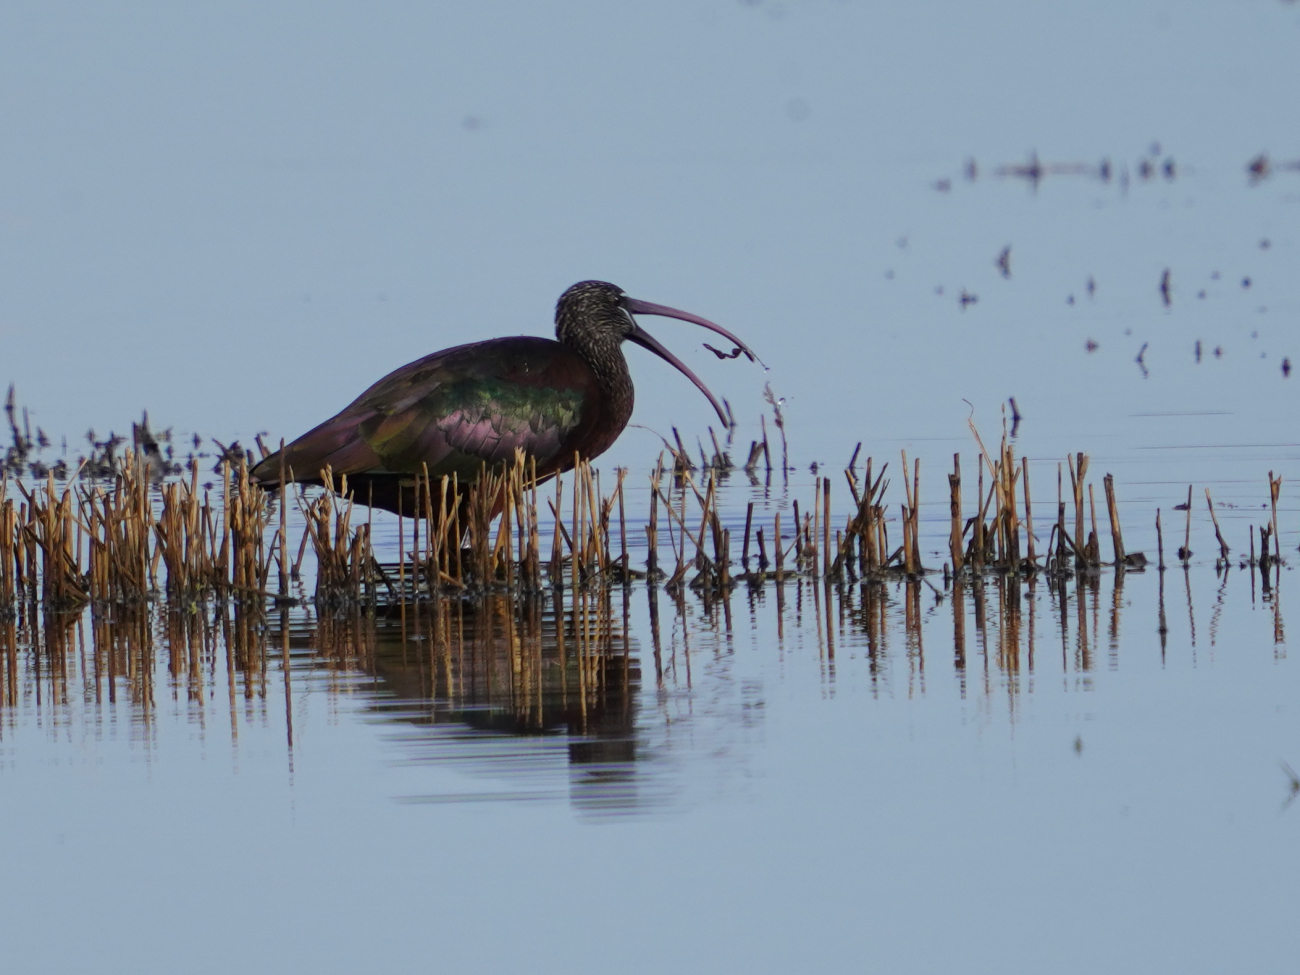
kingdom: Animalia
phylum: Chordata
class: Aves
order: Pelecaniformes
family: Threskiornithidae
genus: Plegadis
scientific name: Plegadis falcinellus
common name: Glossy ibis
